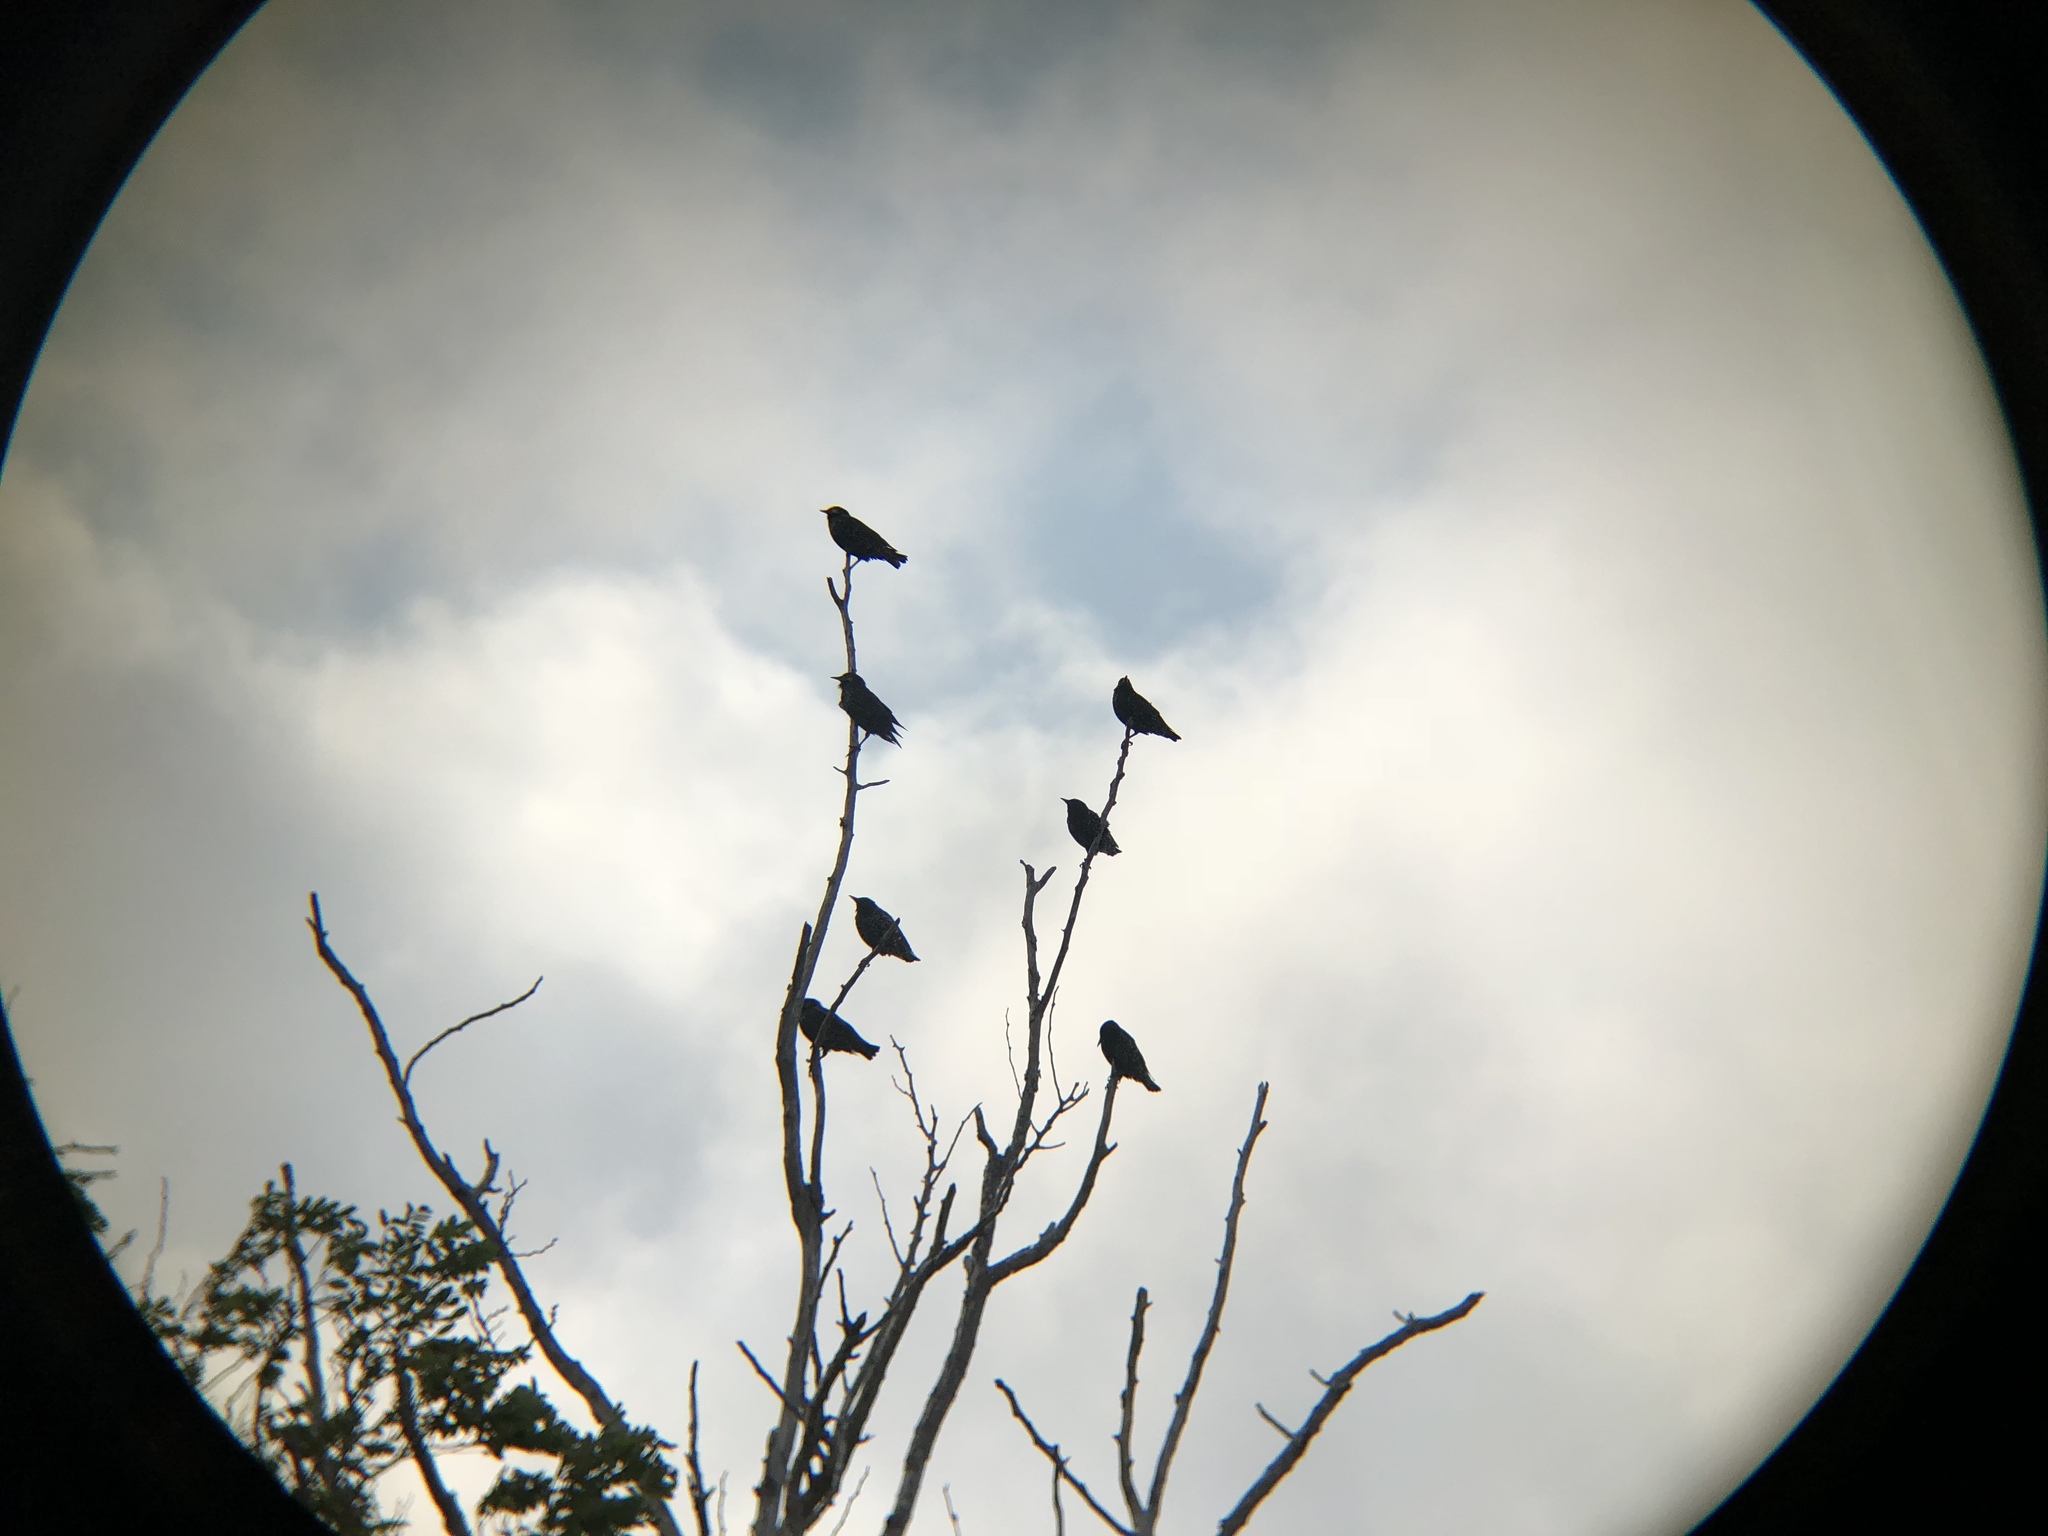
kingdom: Animalia
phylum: Chordata
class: Aves
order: Passeriformes
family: Sturnidae
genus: Sturnus
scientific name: Sturnus vulgaris
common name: Common starling
